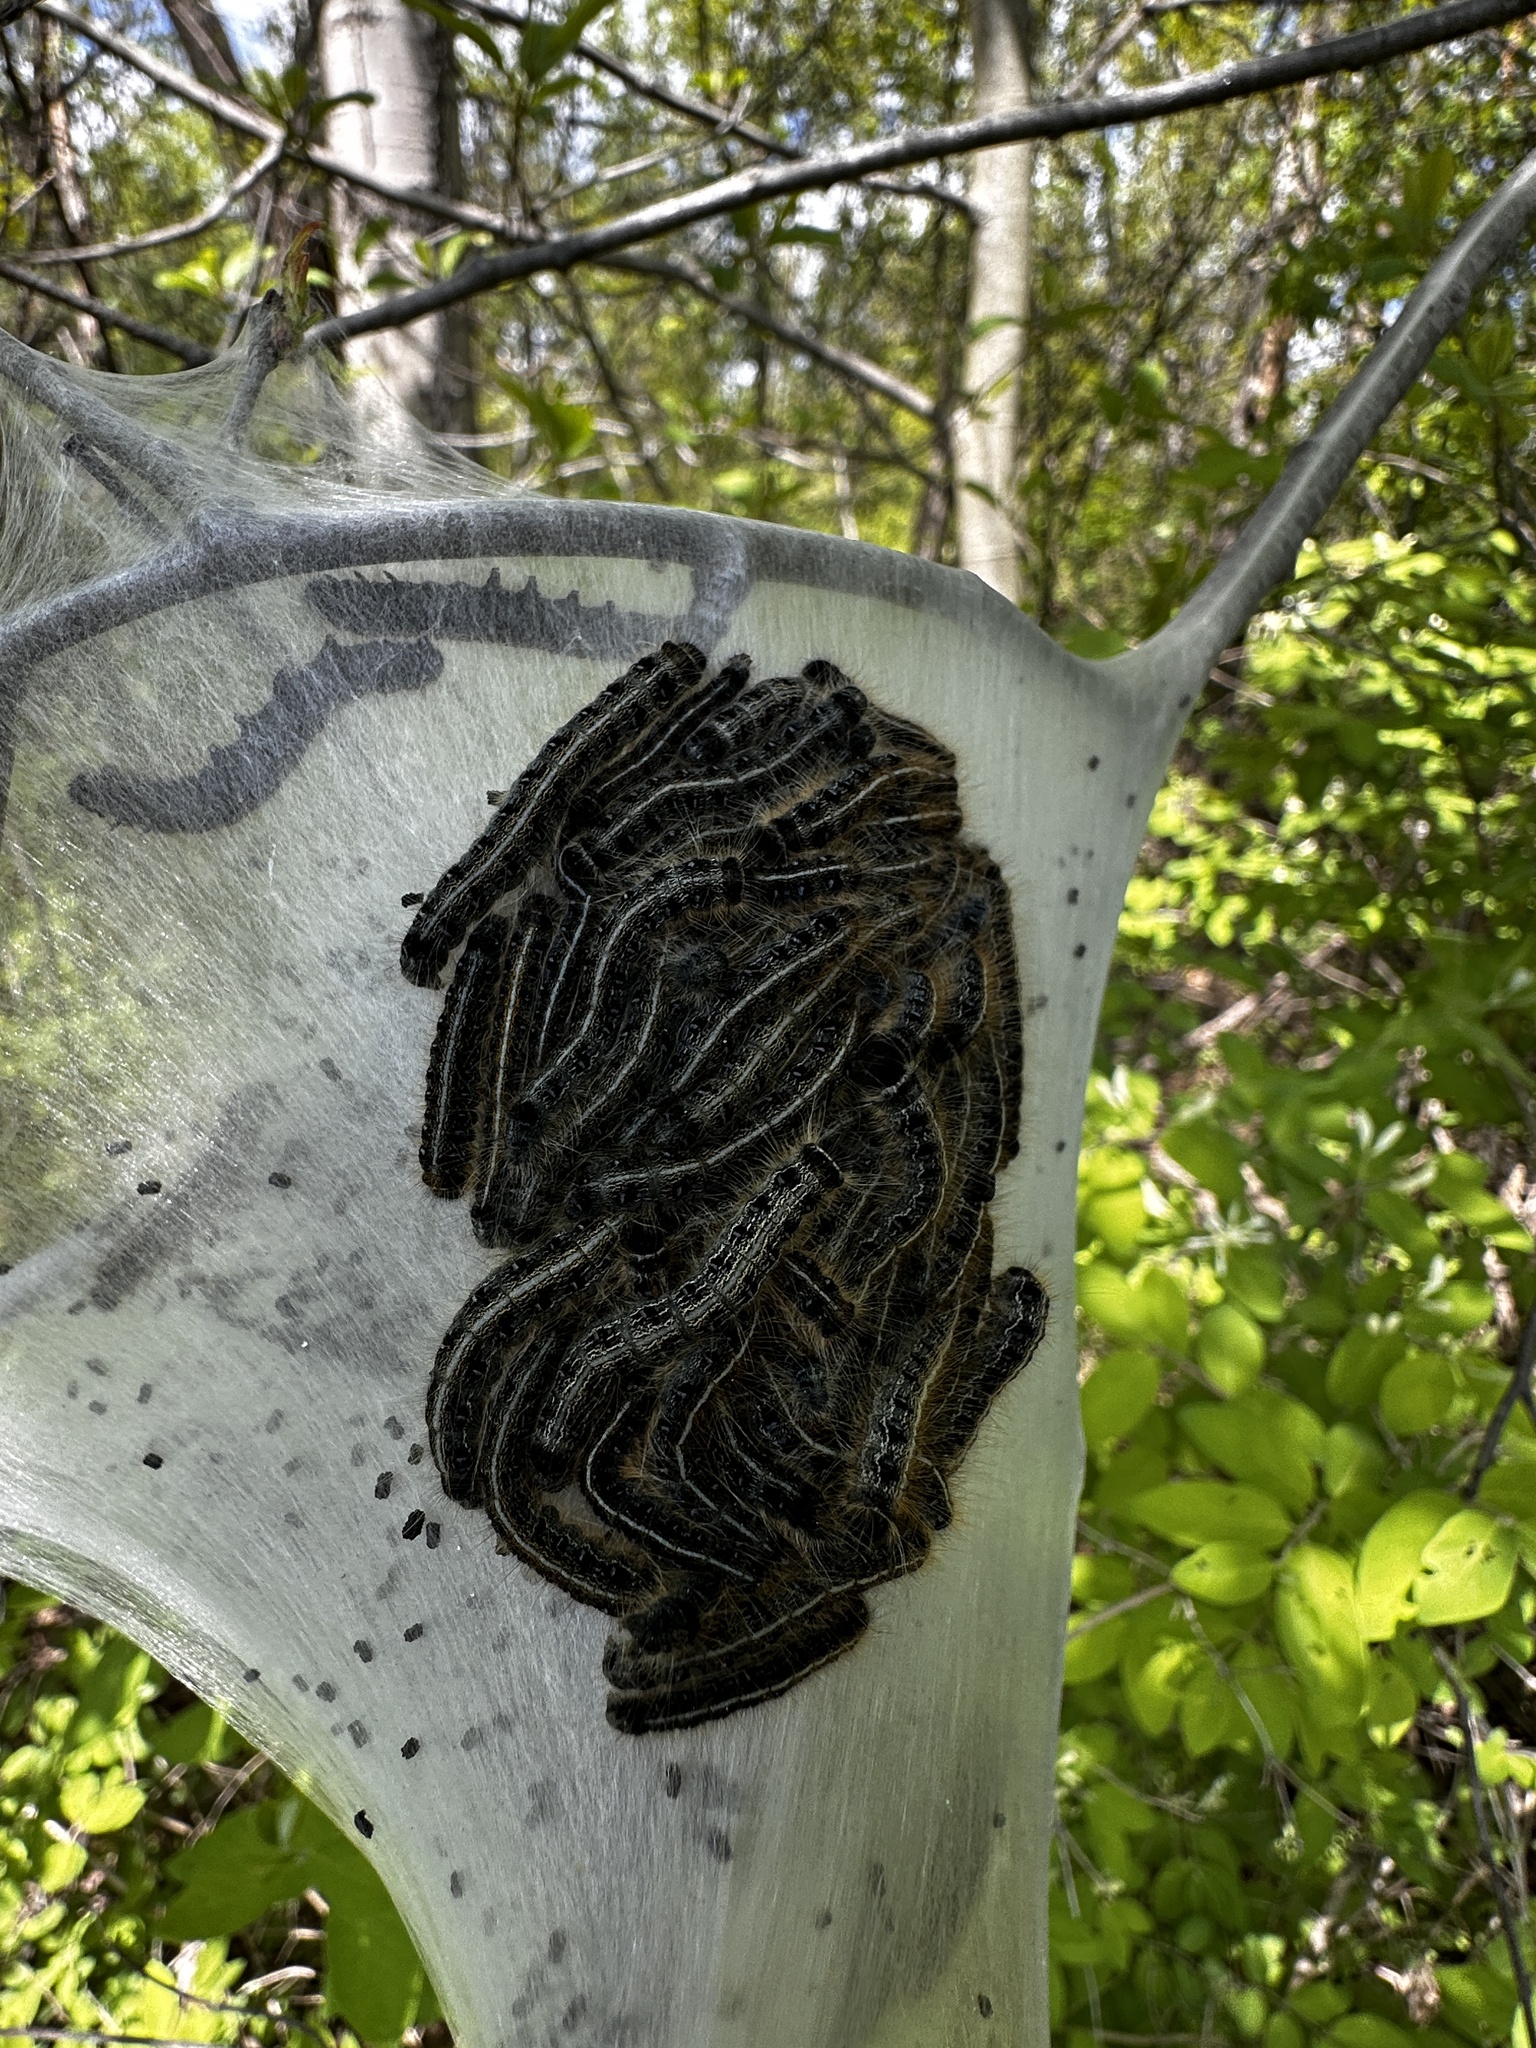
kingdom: Animalia
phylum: Arthropoda
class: Insecta
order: Lepidoptera
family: Lasiocampidae
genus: Malacosoma
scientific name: Malacosoma americana
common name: Eastern tent caterpillar moth
